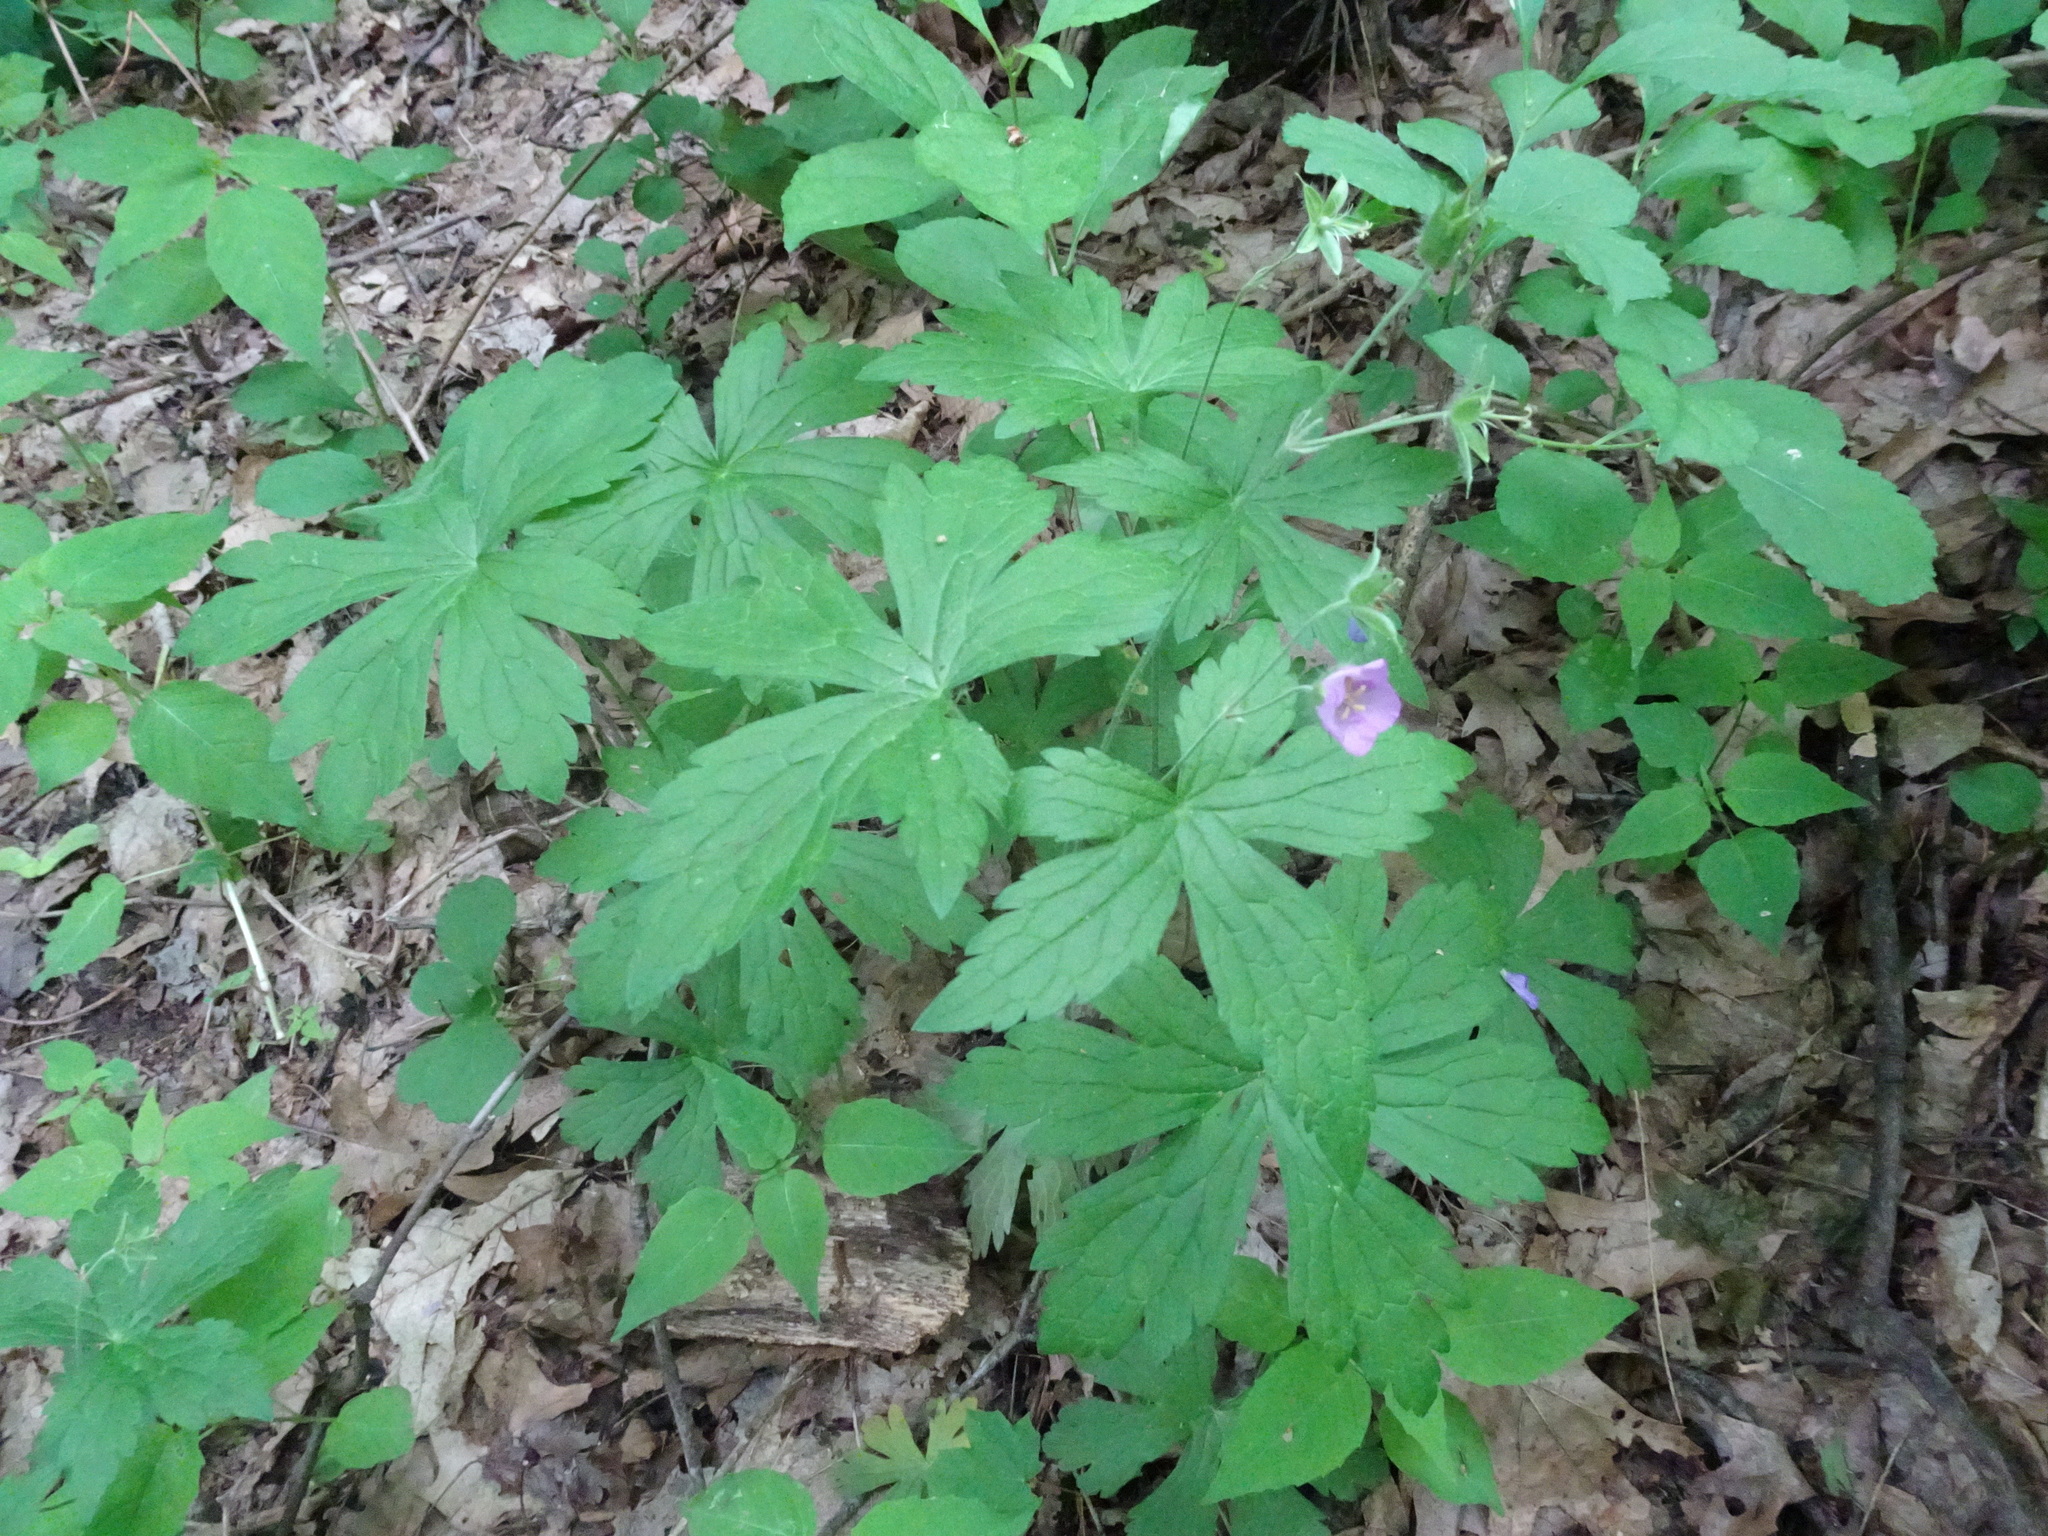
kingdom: Plantae
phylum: Tracheophyta
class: Magnoliopsida
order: Geraniales
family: Geraniaceae
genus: Geranium
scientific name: Geranium maculatum
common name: Spotted geranium
